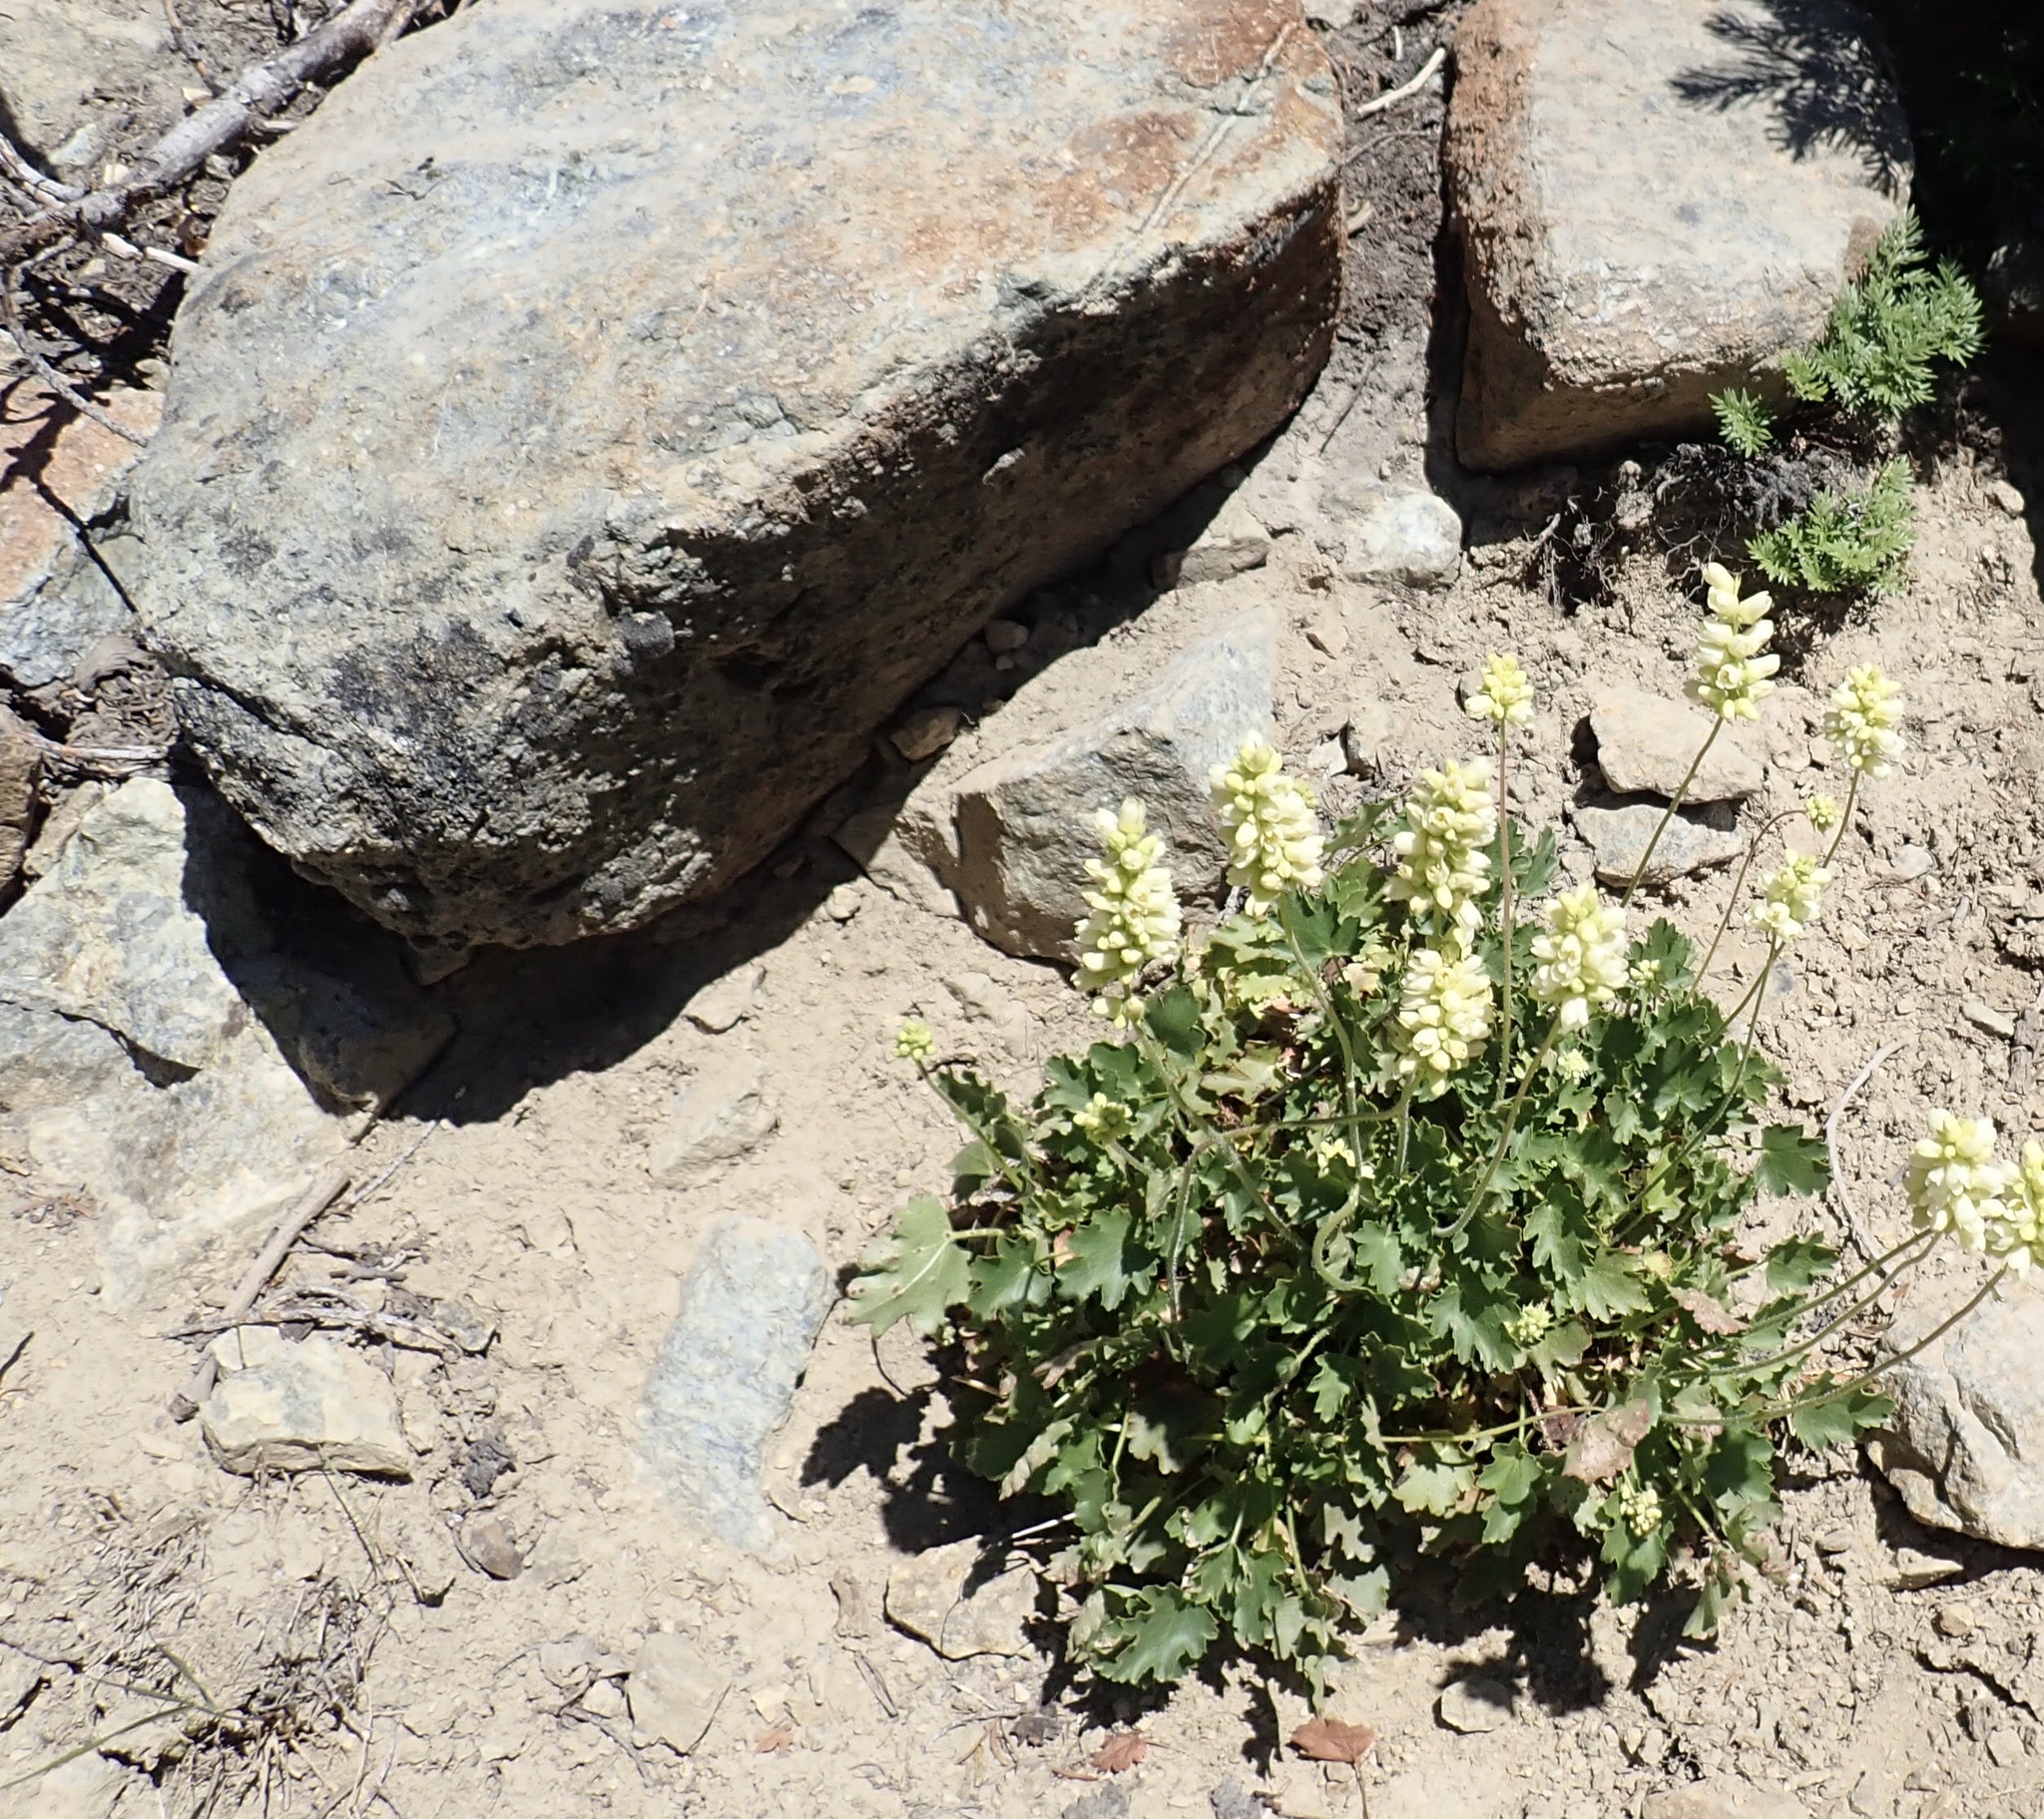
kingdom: Plantae
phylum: Tracheophyta
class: Magnoliopsida
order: Saxifragales
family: Saxifragaceae
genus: Heuchera
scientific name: Heuchera cylindrica
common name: Mat alumroot
